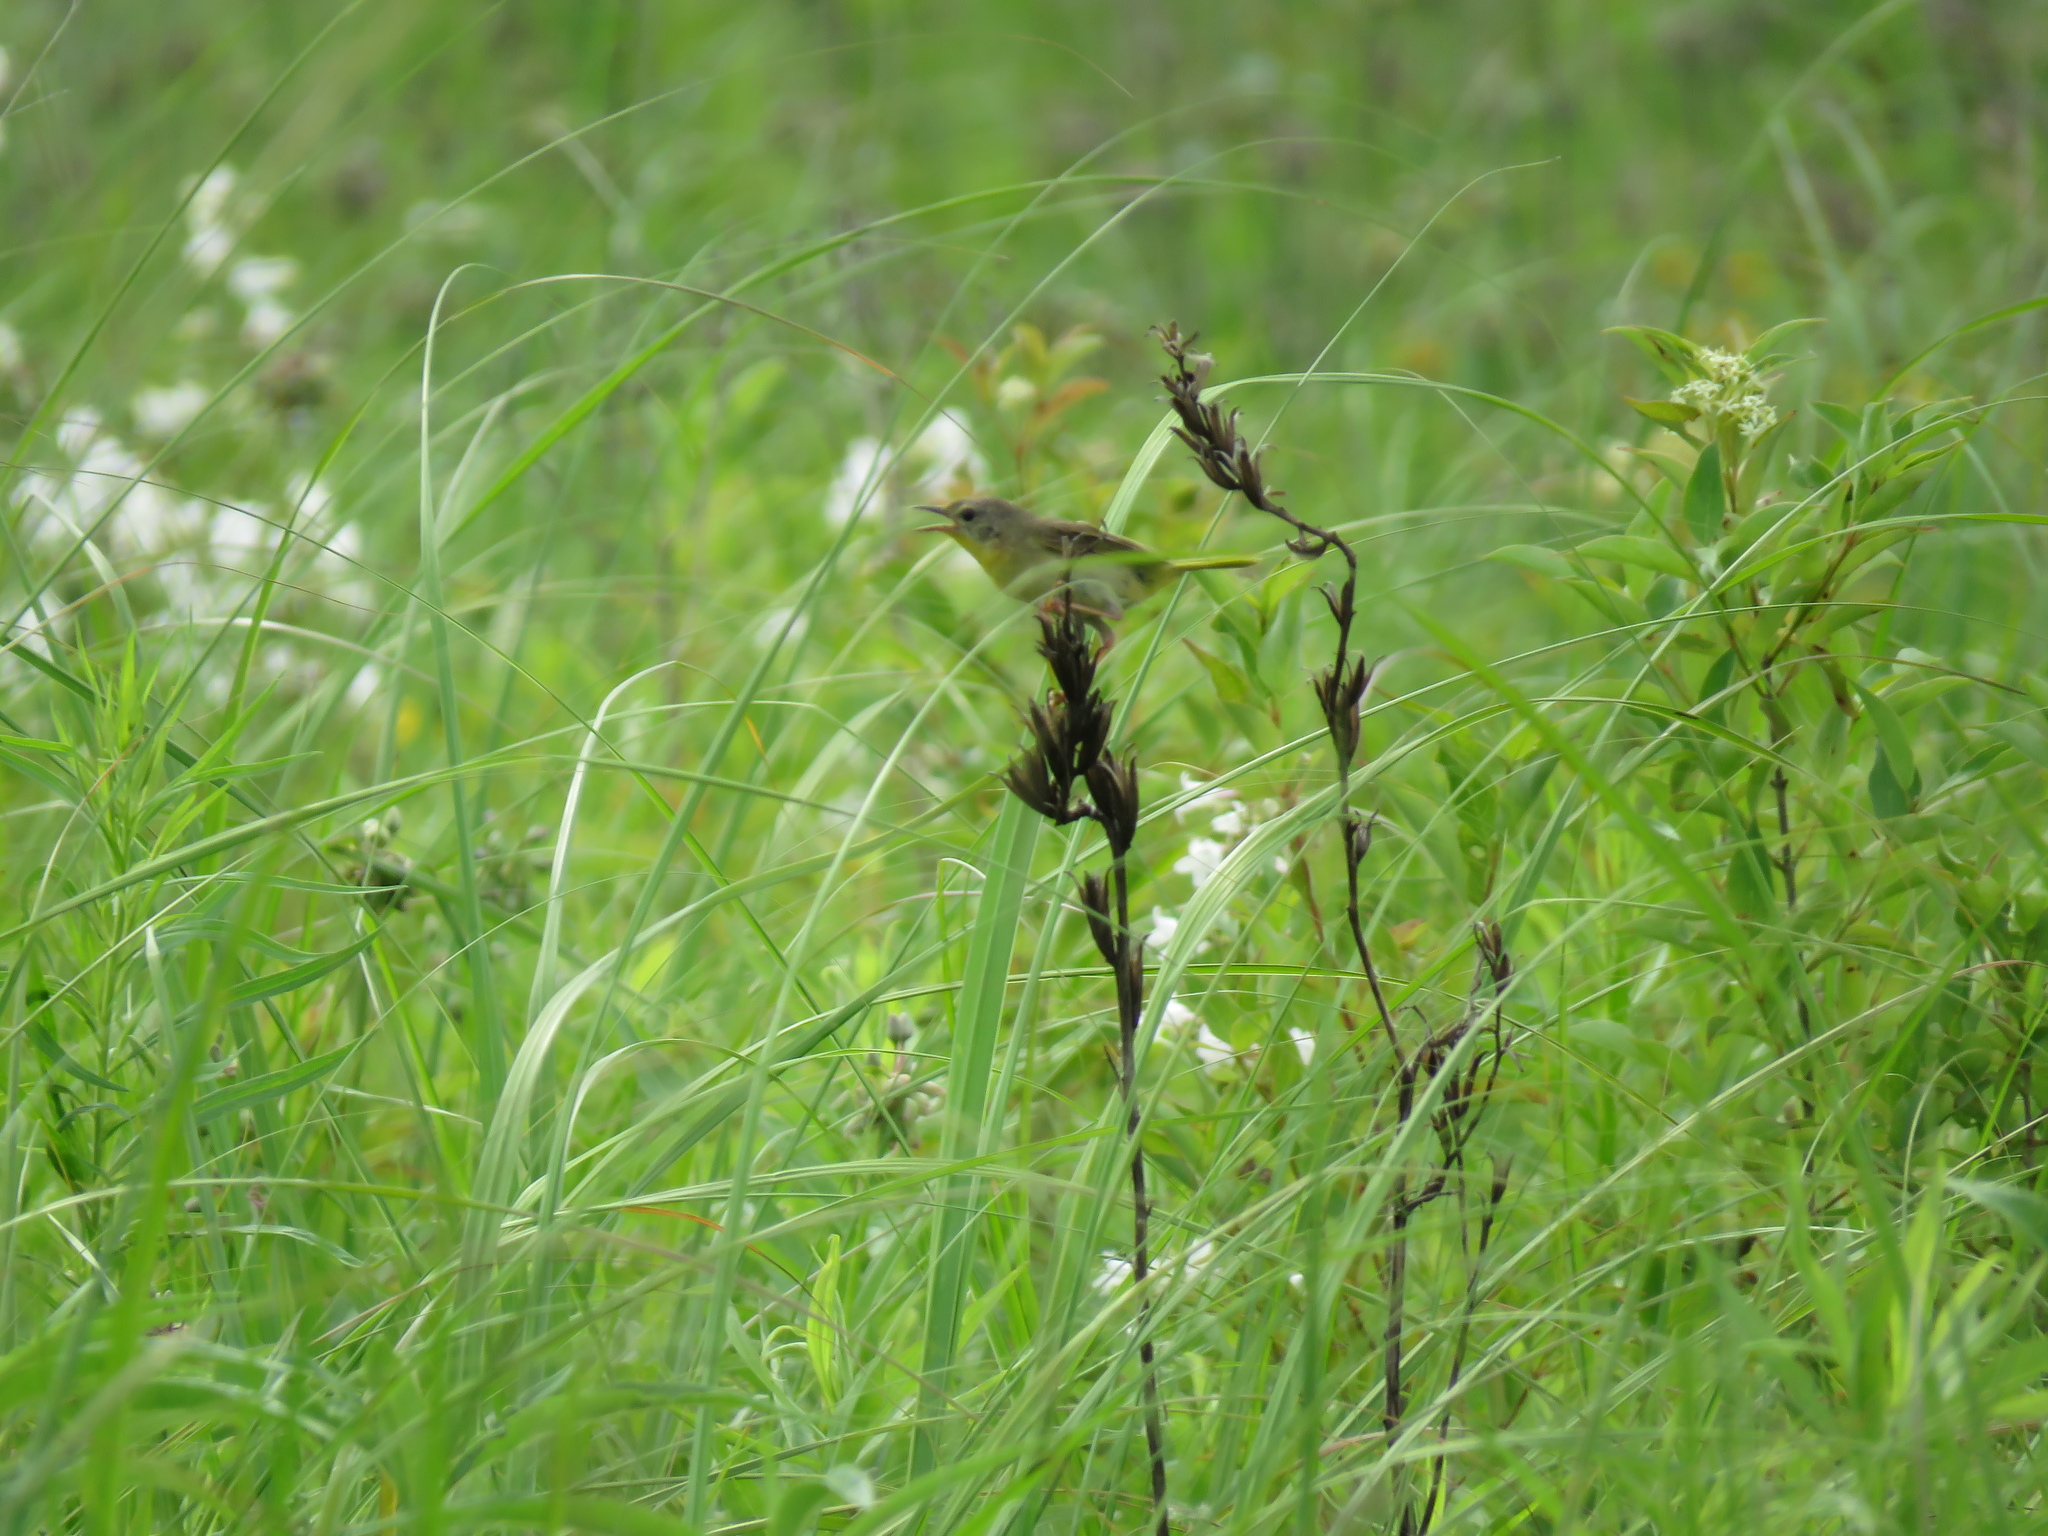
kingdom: Animalia
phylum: Chordata
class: Aves
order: Passeriformes
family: Parulidae
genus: Geothlypis
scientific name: Geothlypis trichas
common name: Common yellowthroat
